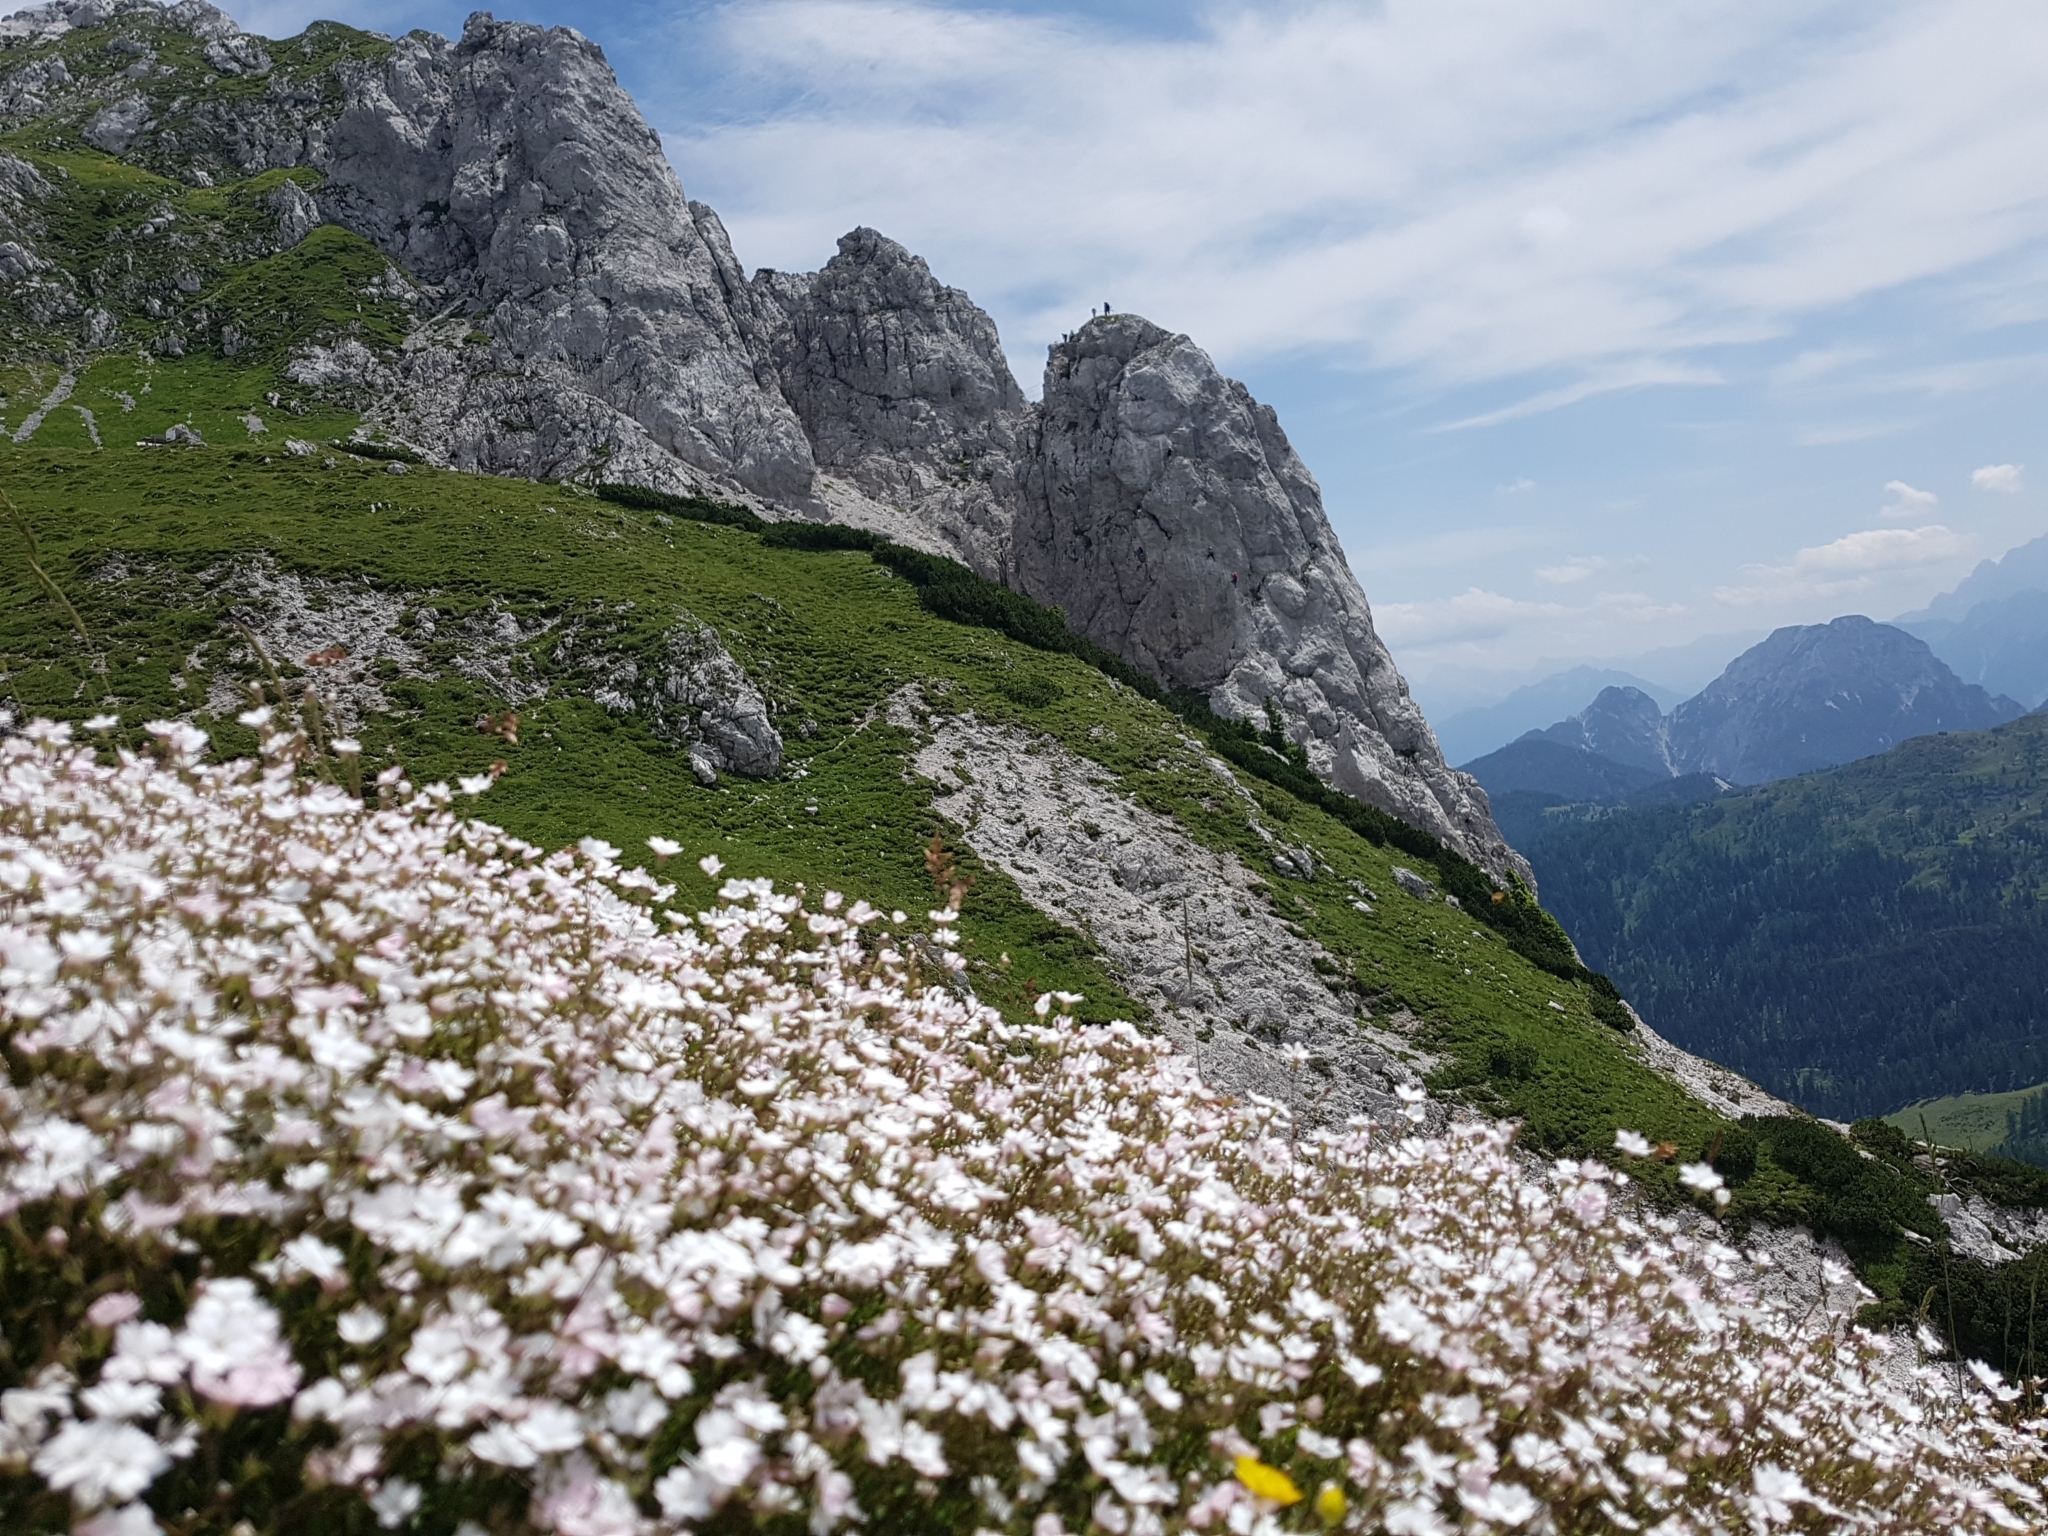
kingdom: Plantae
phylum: Tracheophyta
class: Magnoliopsida
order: Caryophyllales
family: Caryophyllaceae
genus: Heliosperma
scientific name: Heliosperma pusillum
